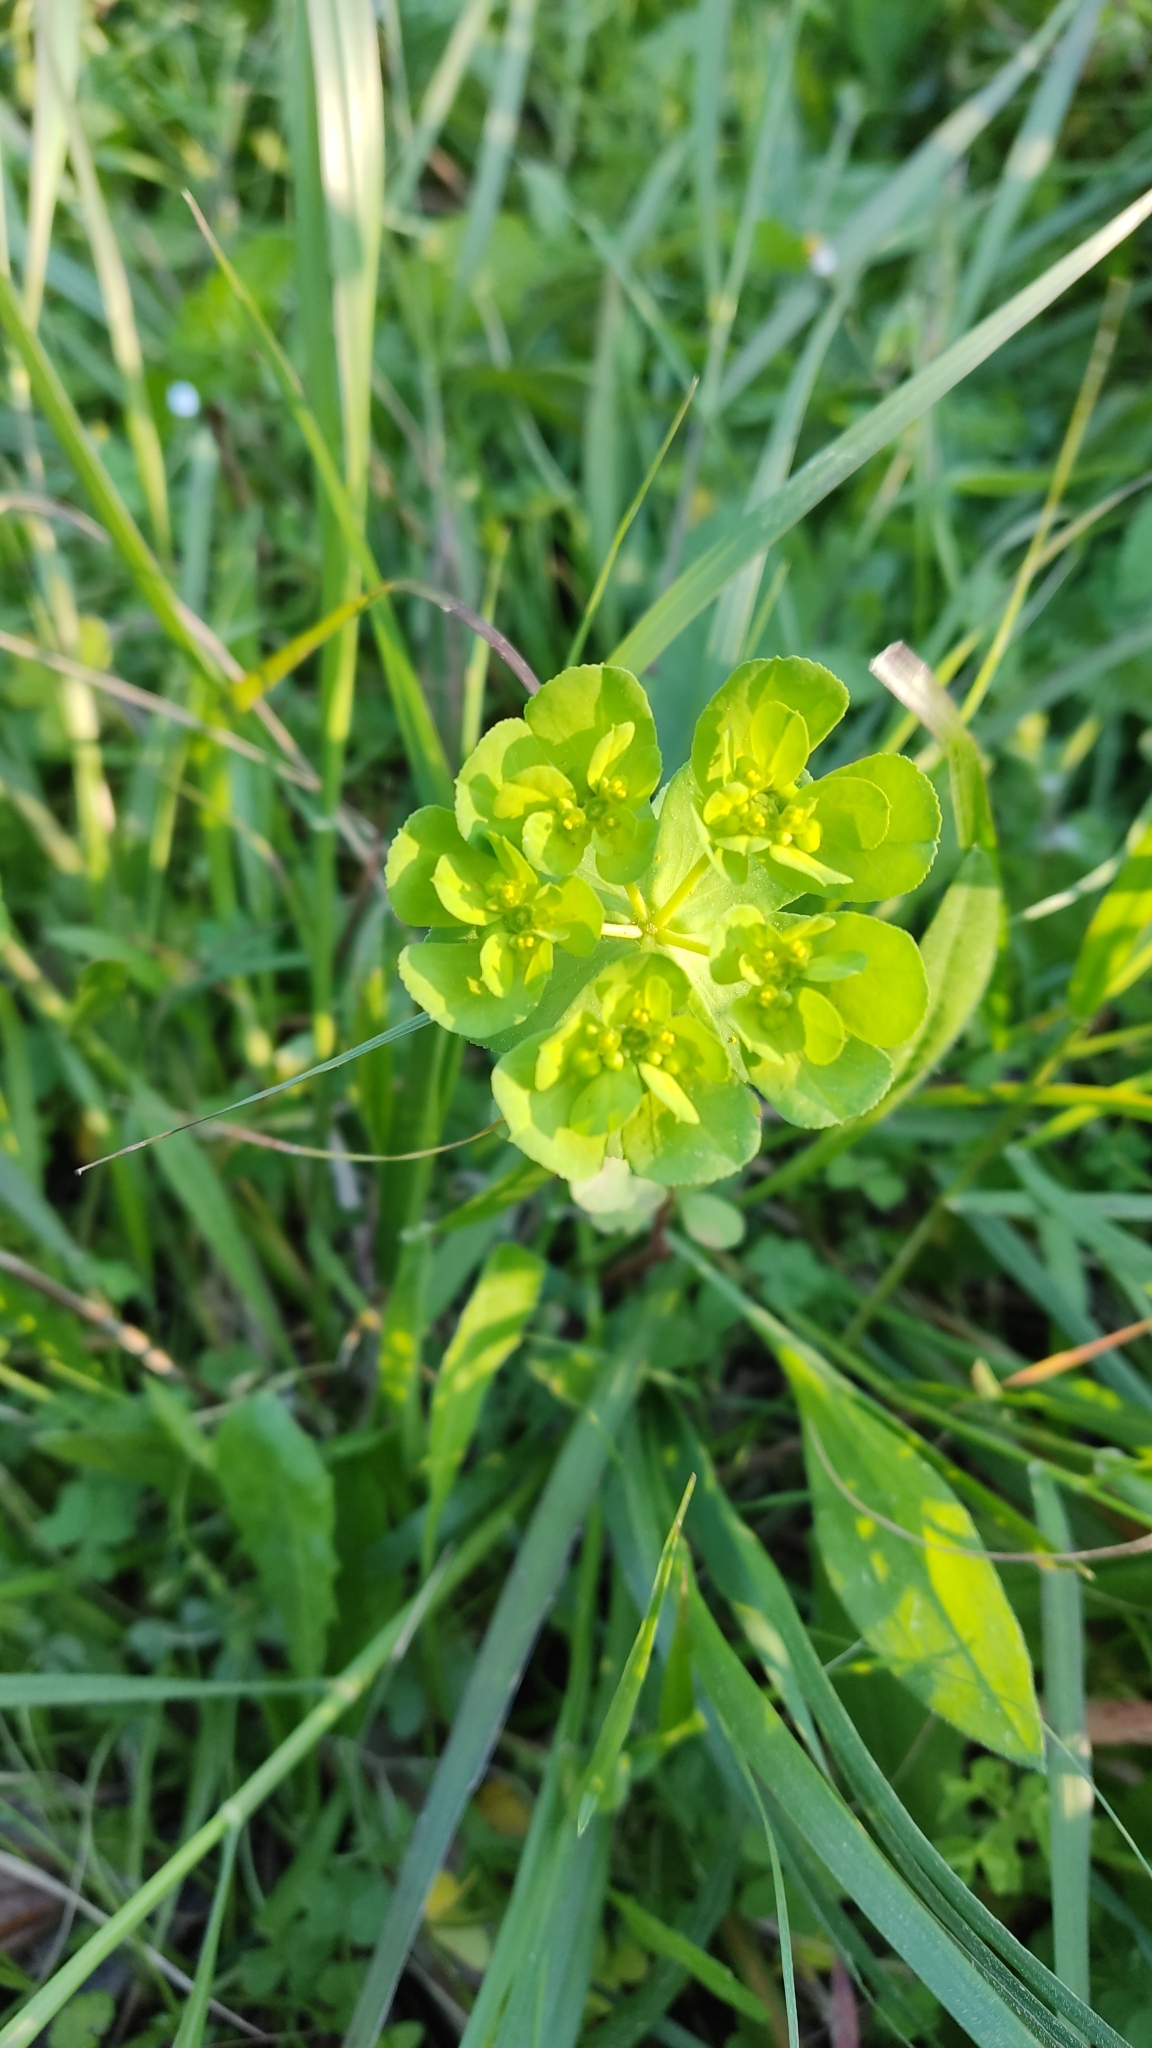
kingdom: Plantae
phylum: Tracheophyta
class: Magnoliopsida
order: Malpighiales
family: Euphorbiaceae
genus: Euphorbia
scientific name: Euphorbia helioscopia
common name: Sun spurge
